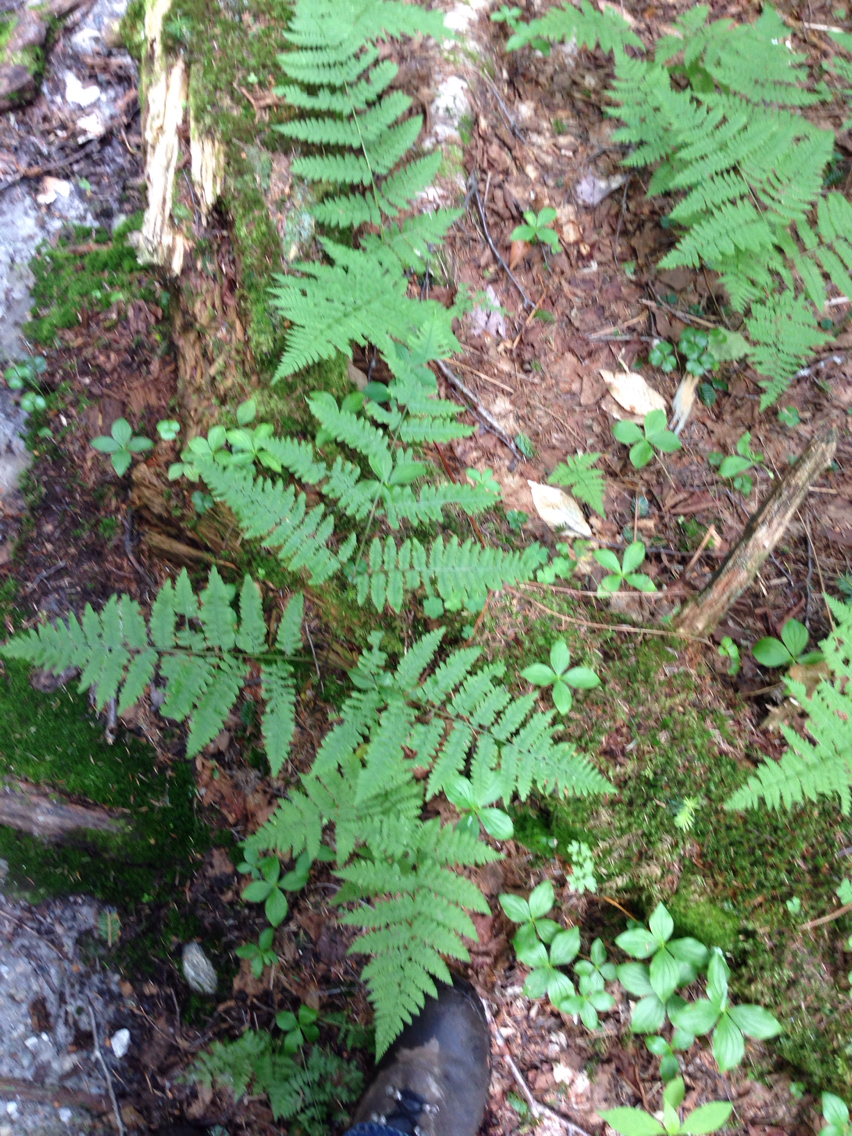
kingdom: Plantae
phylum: Tracheophyta
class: Polypodiopsida
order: Polypodiales
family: Dennstaedtiaceae
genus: Pteridium
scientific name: Pteridium aquilinum
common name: Bracken
